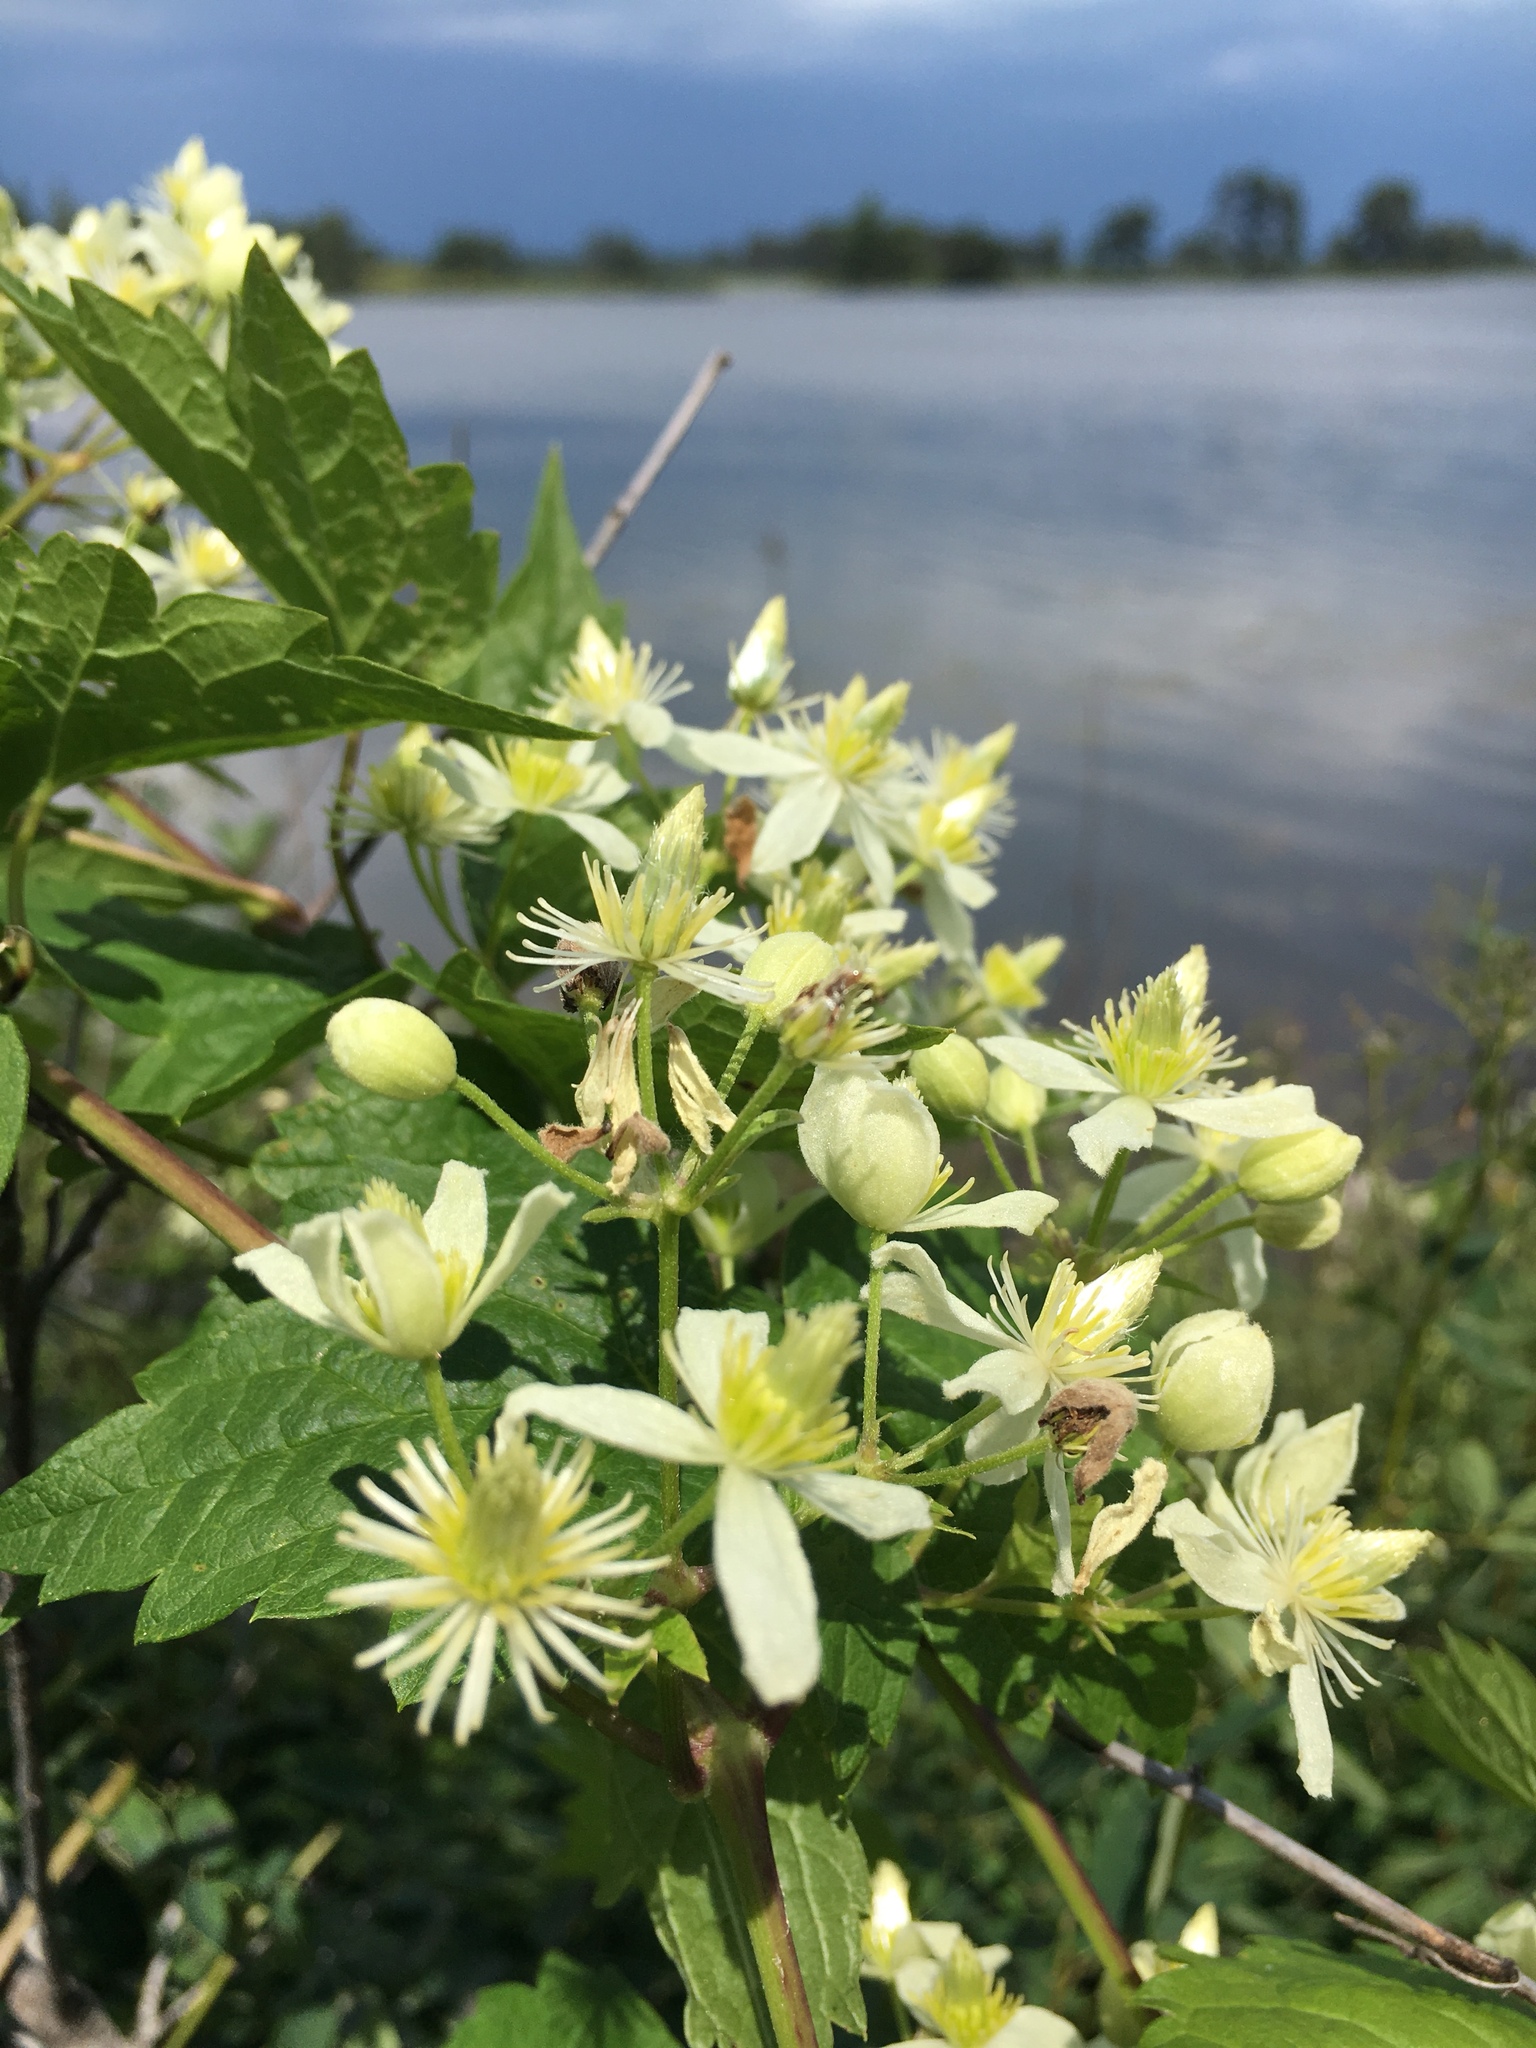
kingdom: Plantae
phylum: Tracheophyta
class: Magnoliopsida
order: Ranunculales
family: Ranunculaceae
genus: Clematis
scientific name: Clematis virginiana
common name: Virgin's-bower
